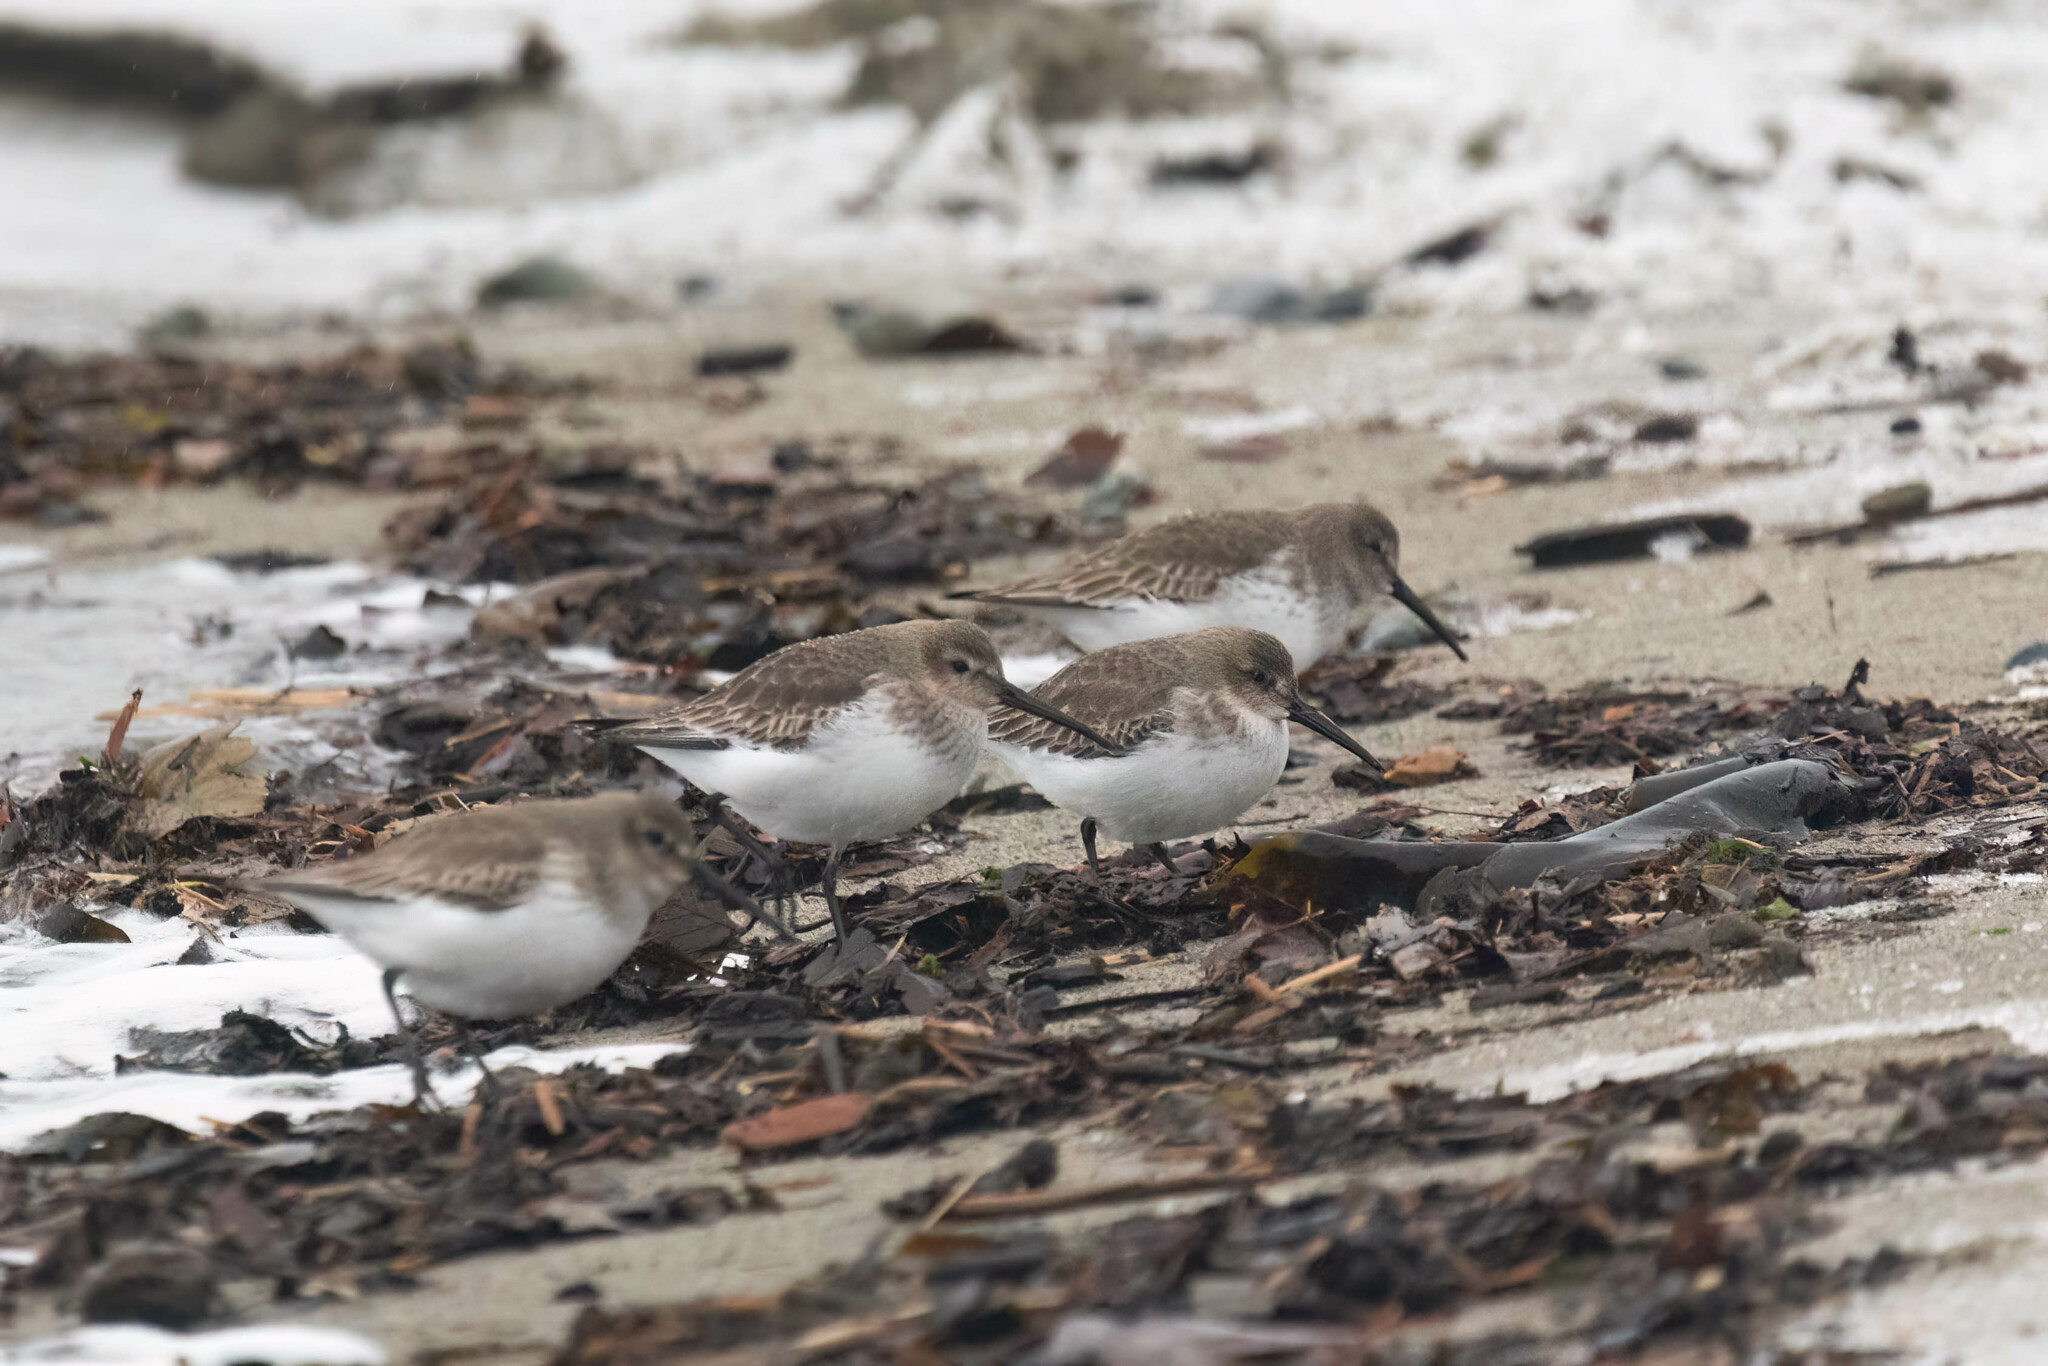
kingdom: Animalia
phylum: Chordata
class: Aves
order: Charadriiformes
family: Scolopacidae
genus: Calidris
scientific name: Calidris alpina
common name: Dunlin
